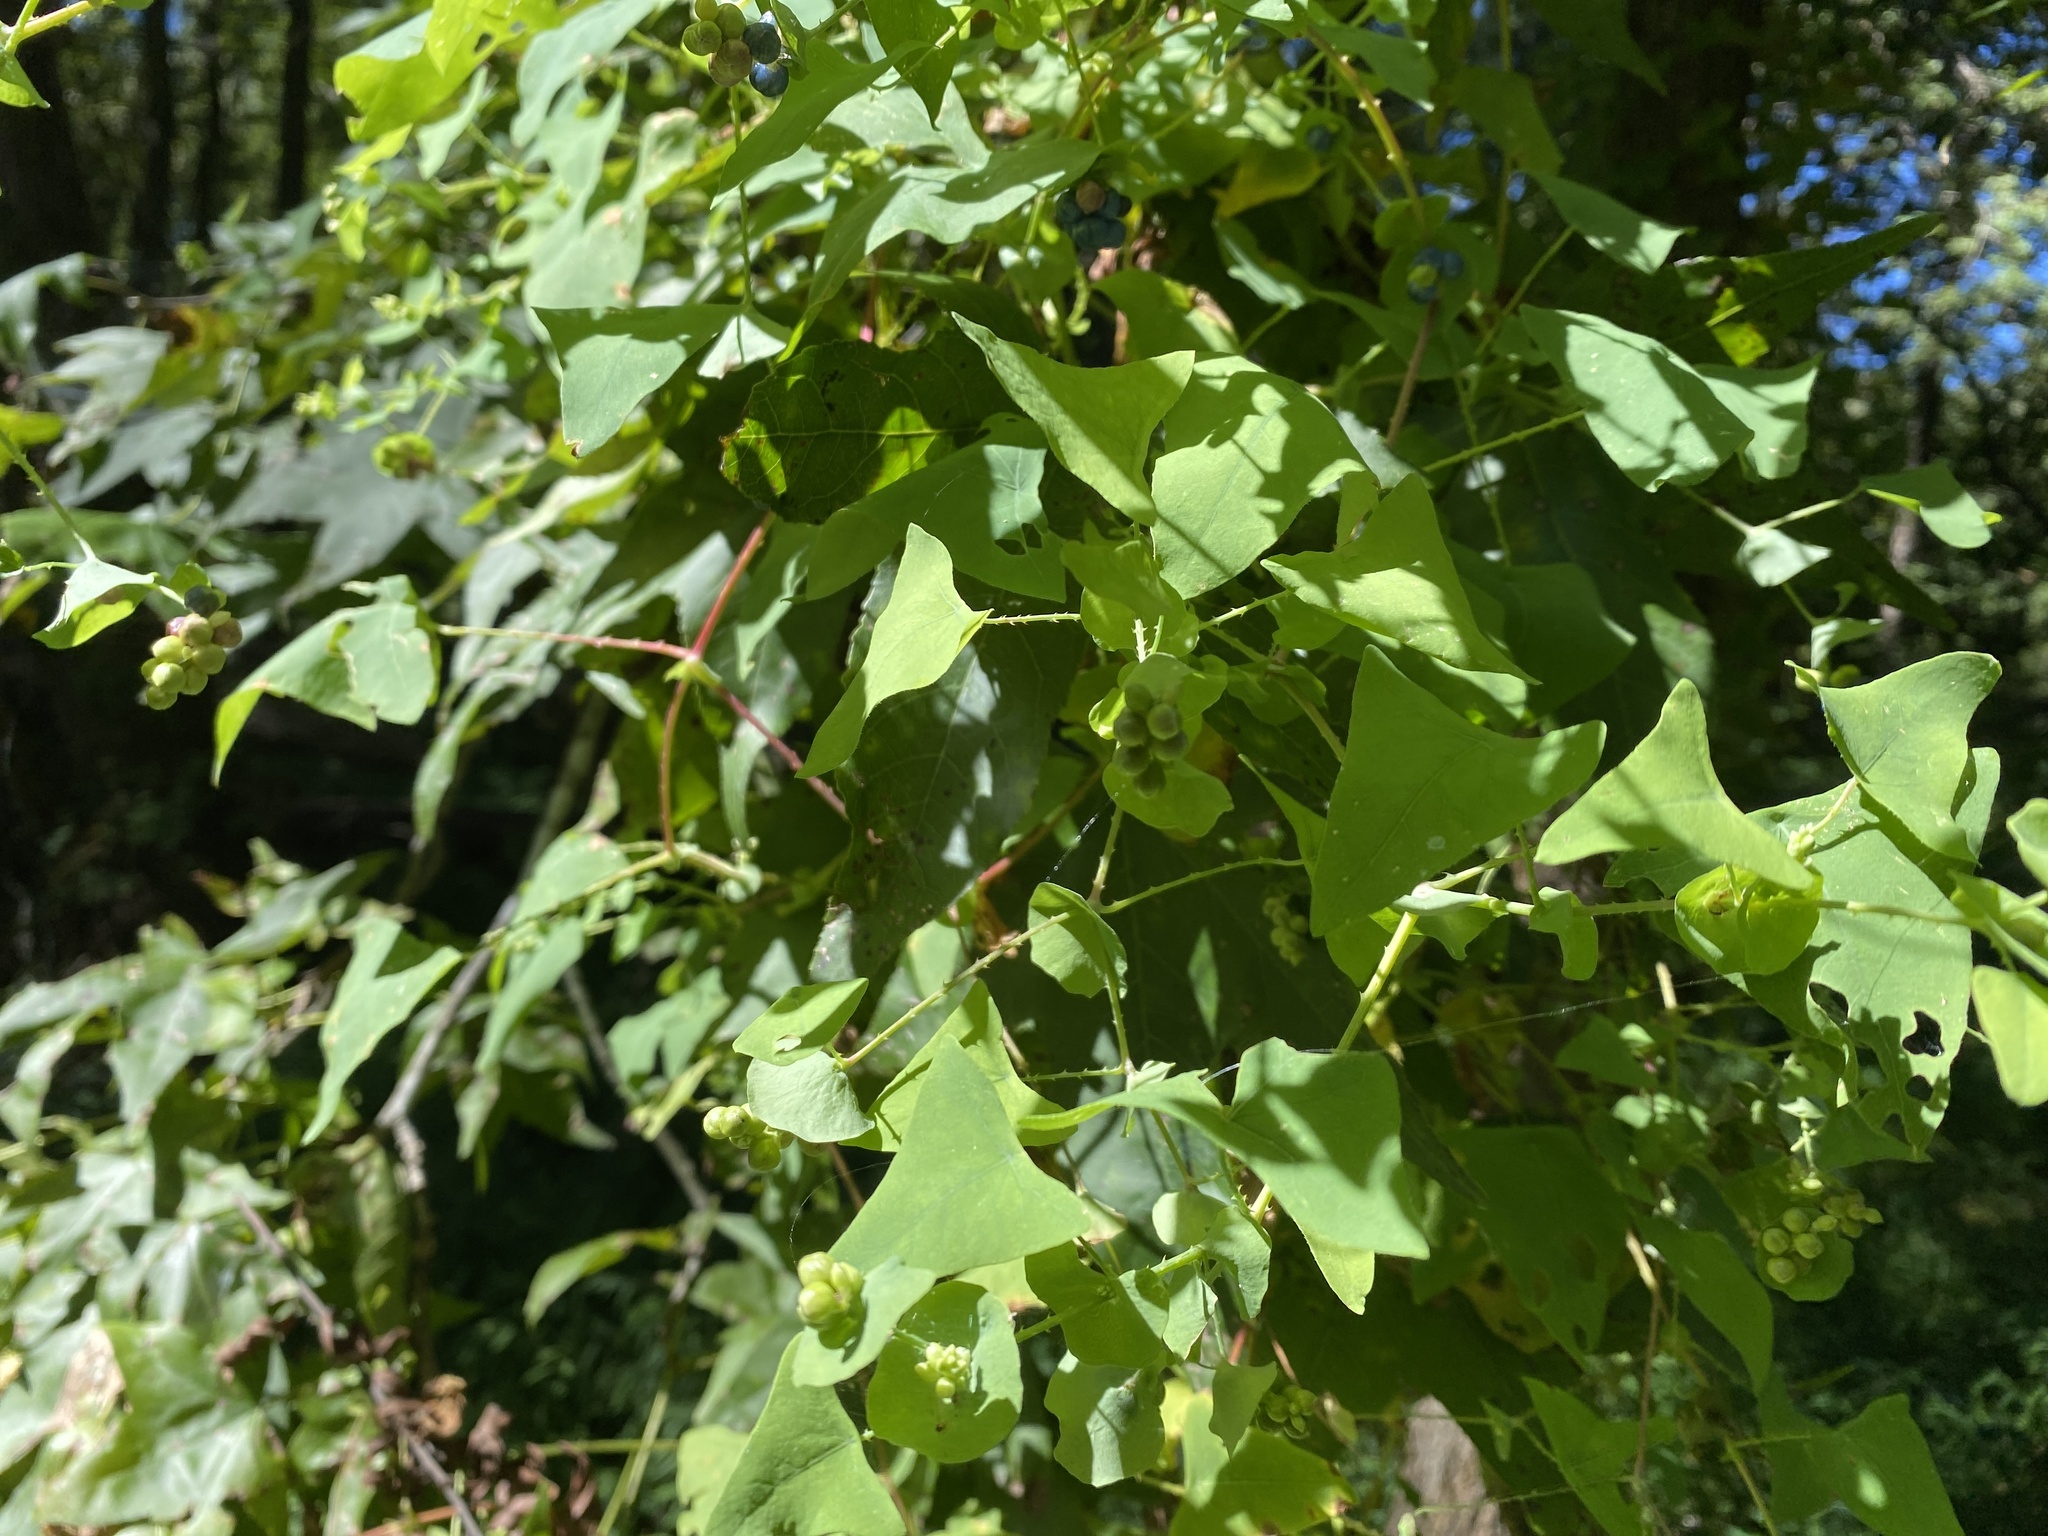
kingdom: Plantae
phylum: Tracheophyta
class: Magnoliopsida
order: Caryophyllales
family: Polygonaceae
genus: Persicaria
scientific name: Persicaria perfoliata
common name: Asiatic tearthumb
